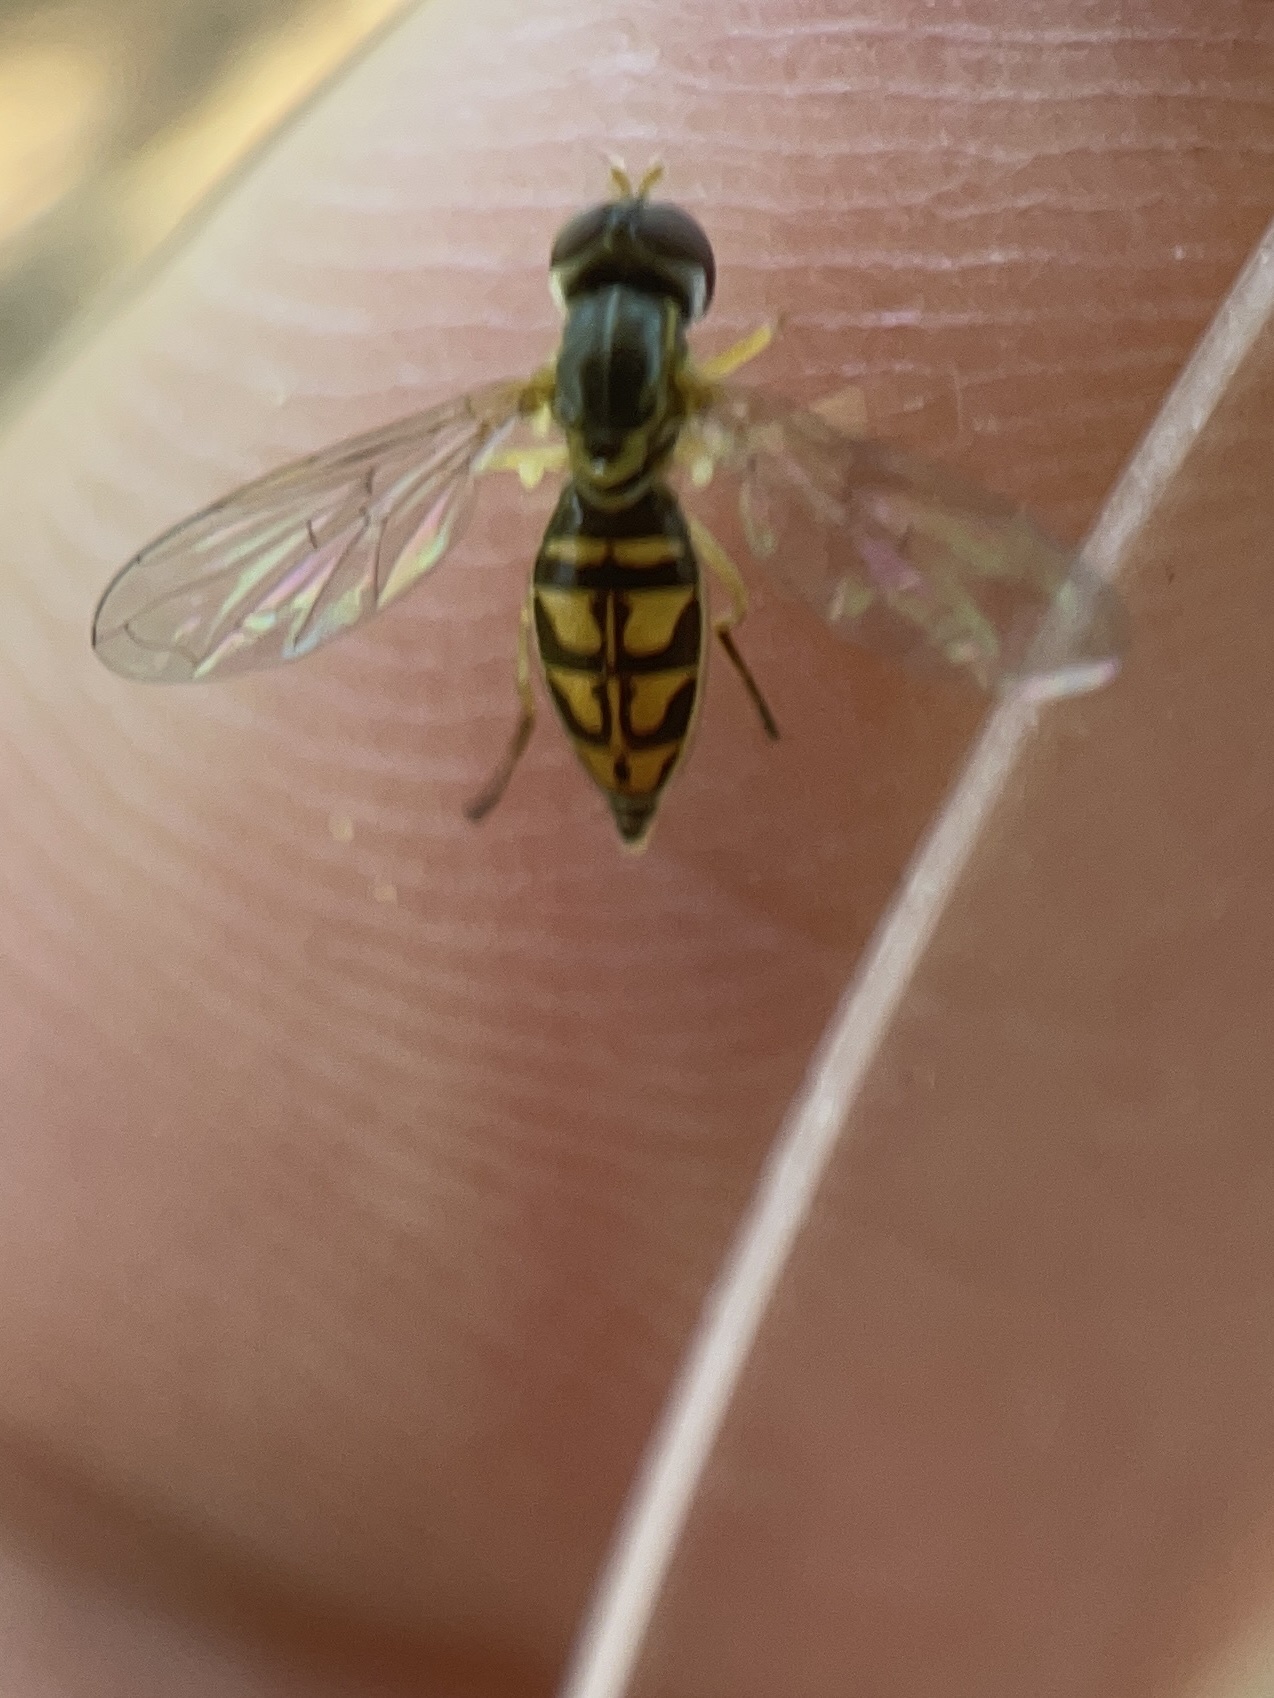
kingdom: Animalia
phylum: Arthropoda
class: Insecta
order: Diptera
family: Syrphidae
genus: Toxomerus
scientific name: Toxomerus marginatus
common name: Syrphid fly
